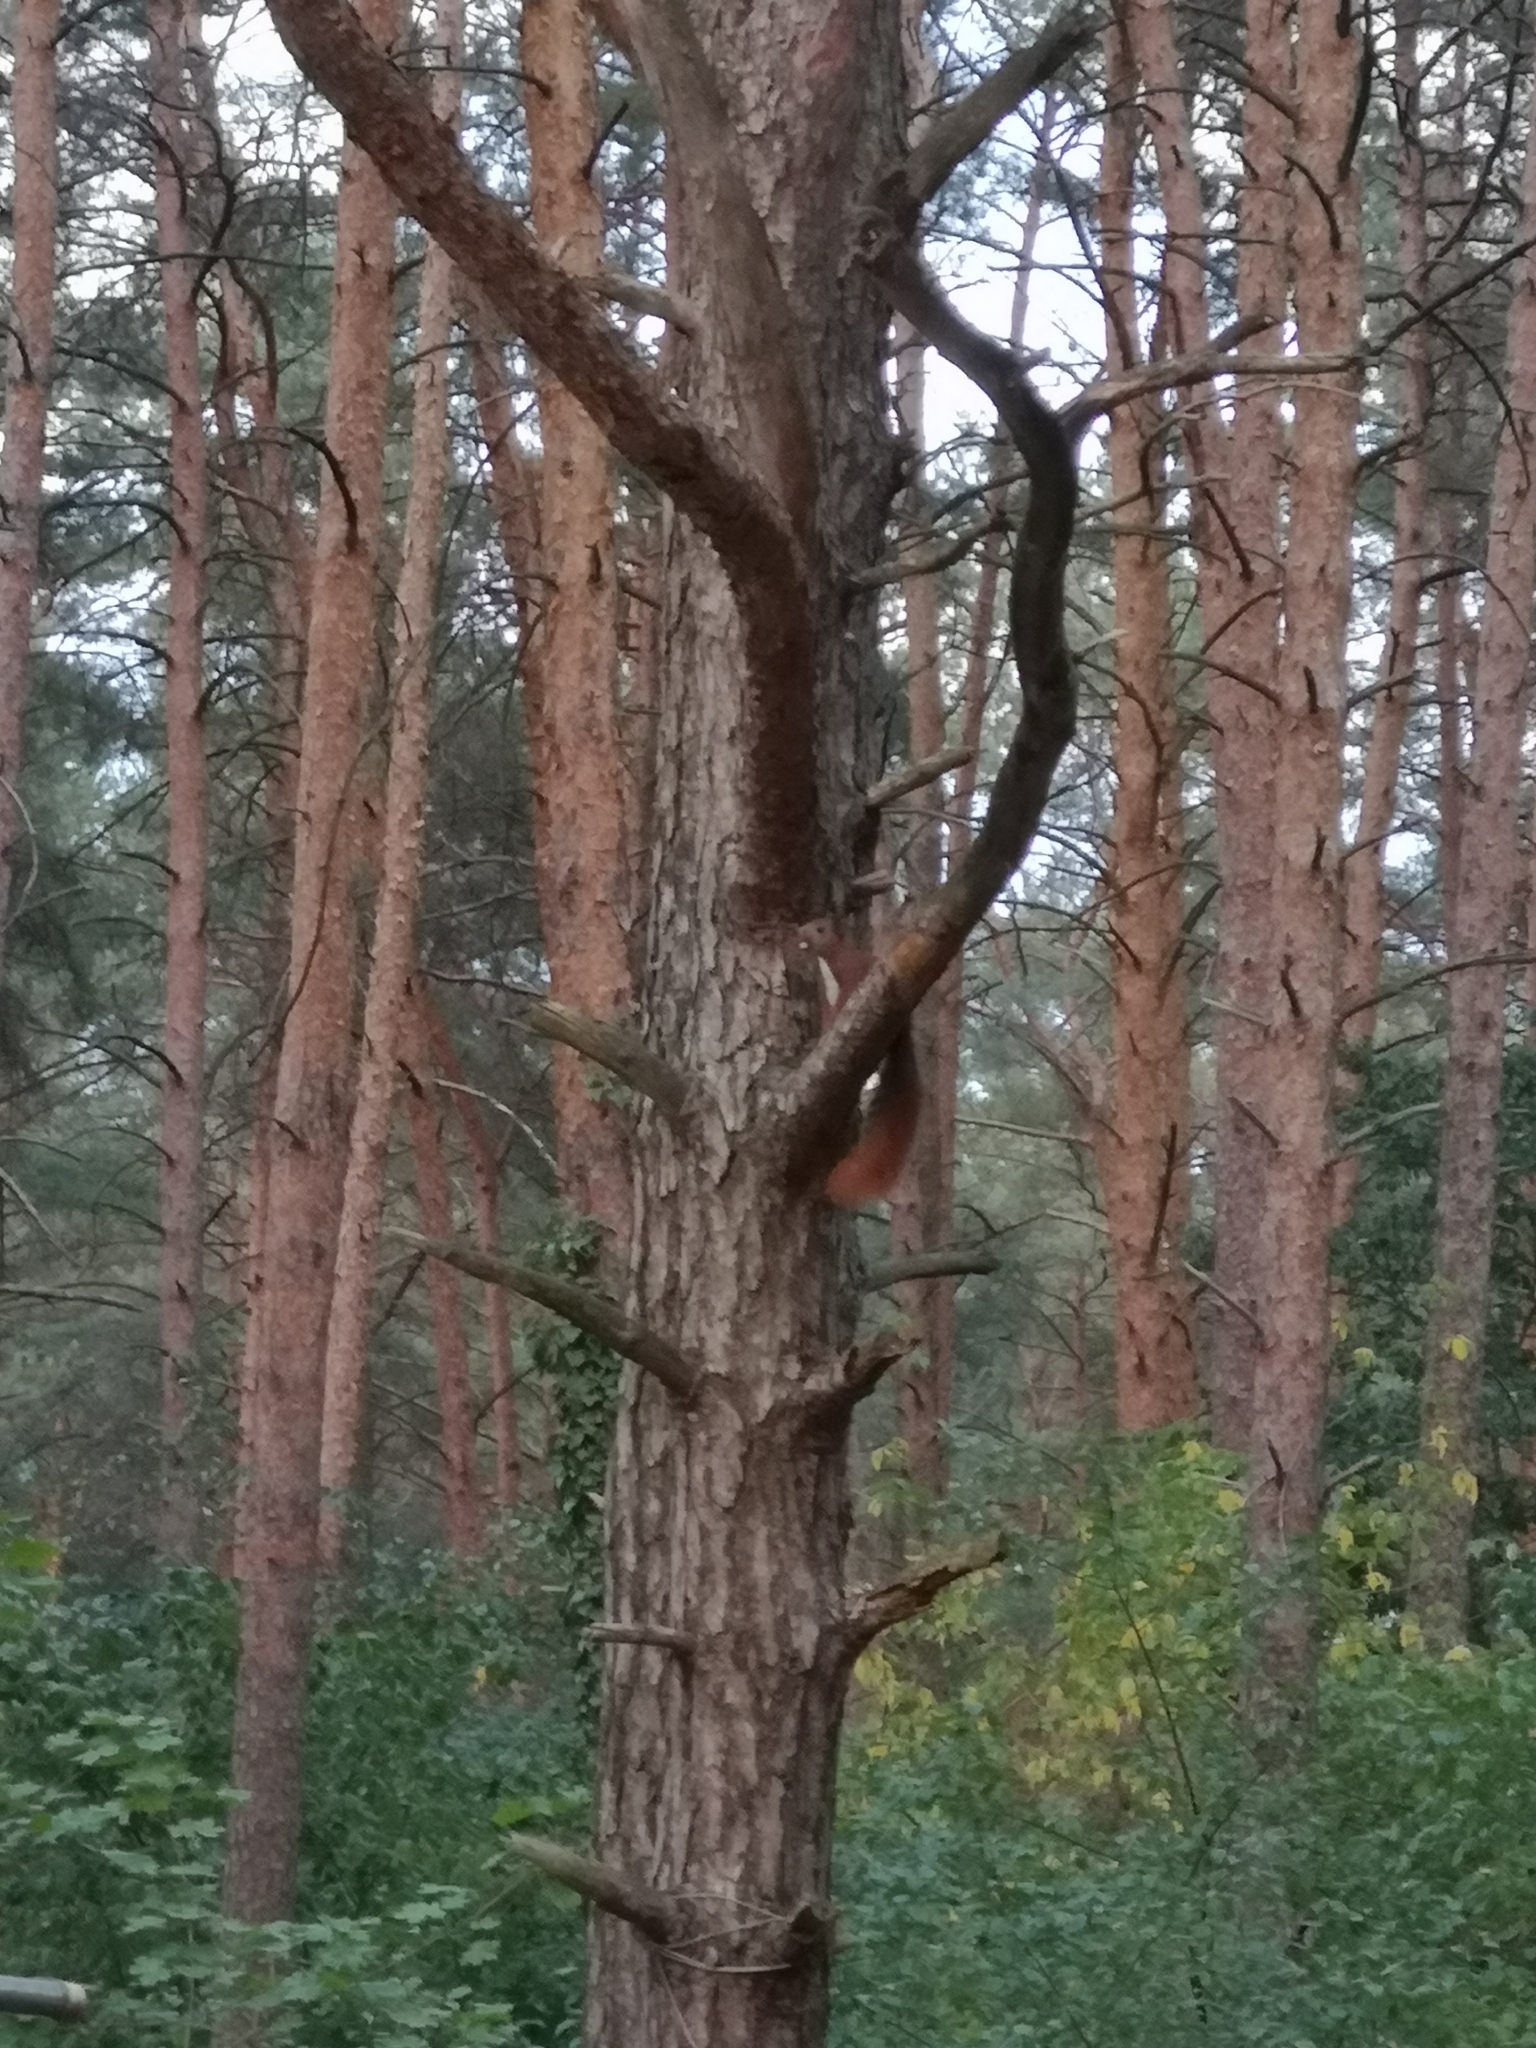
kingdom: Animalia
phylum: Chordata
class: Mammalia
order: Rodentia
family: Sciuridae
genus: Sciurus
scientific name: Sciurus vulgaris
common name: Eurasian red squirrel
